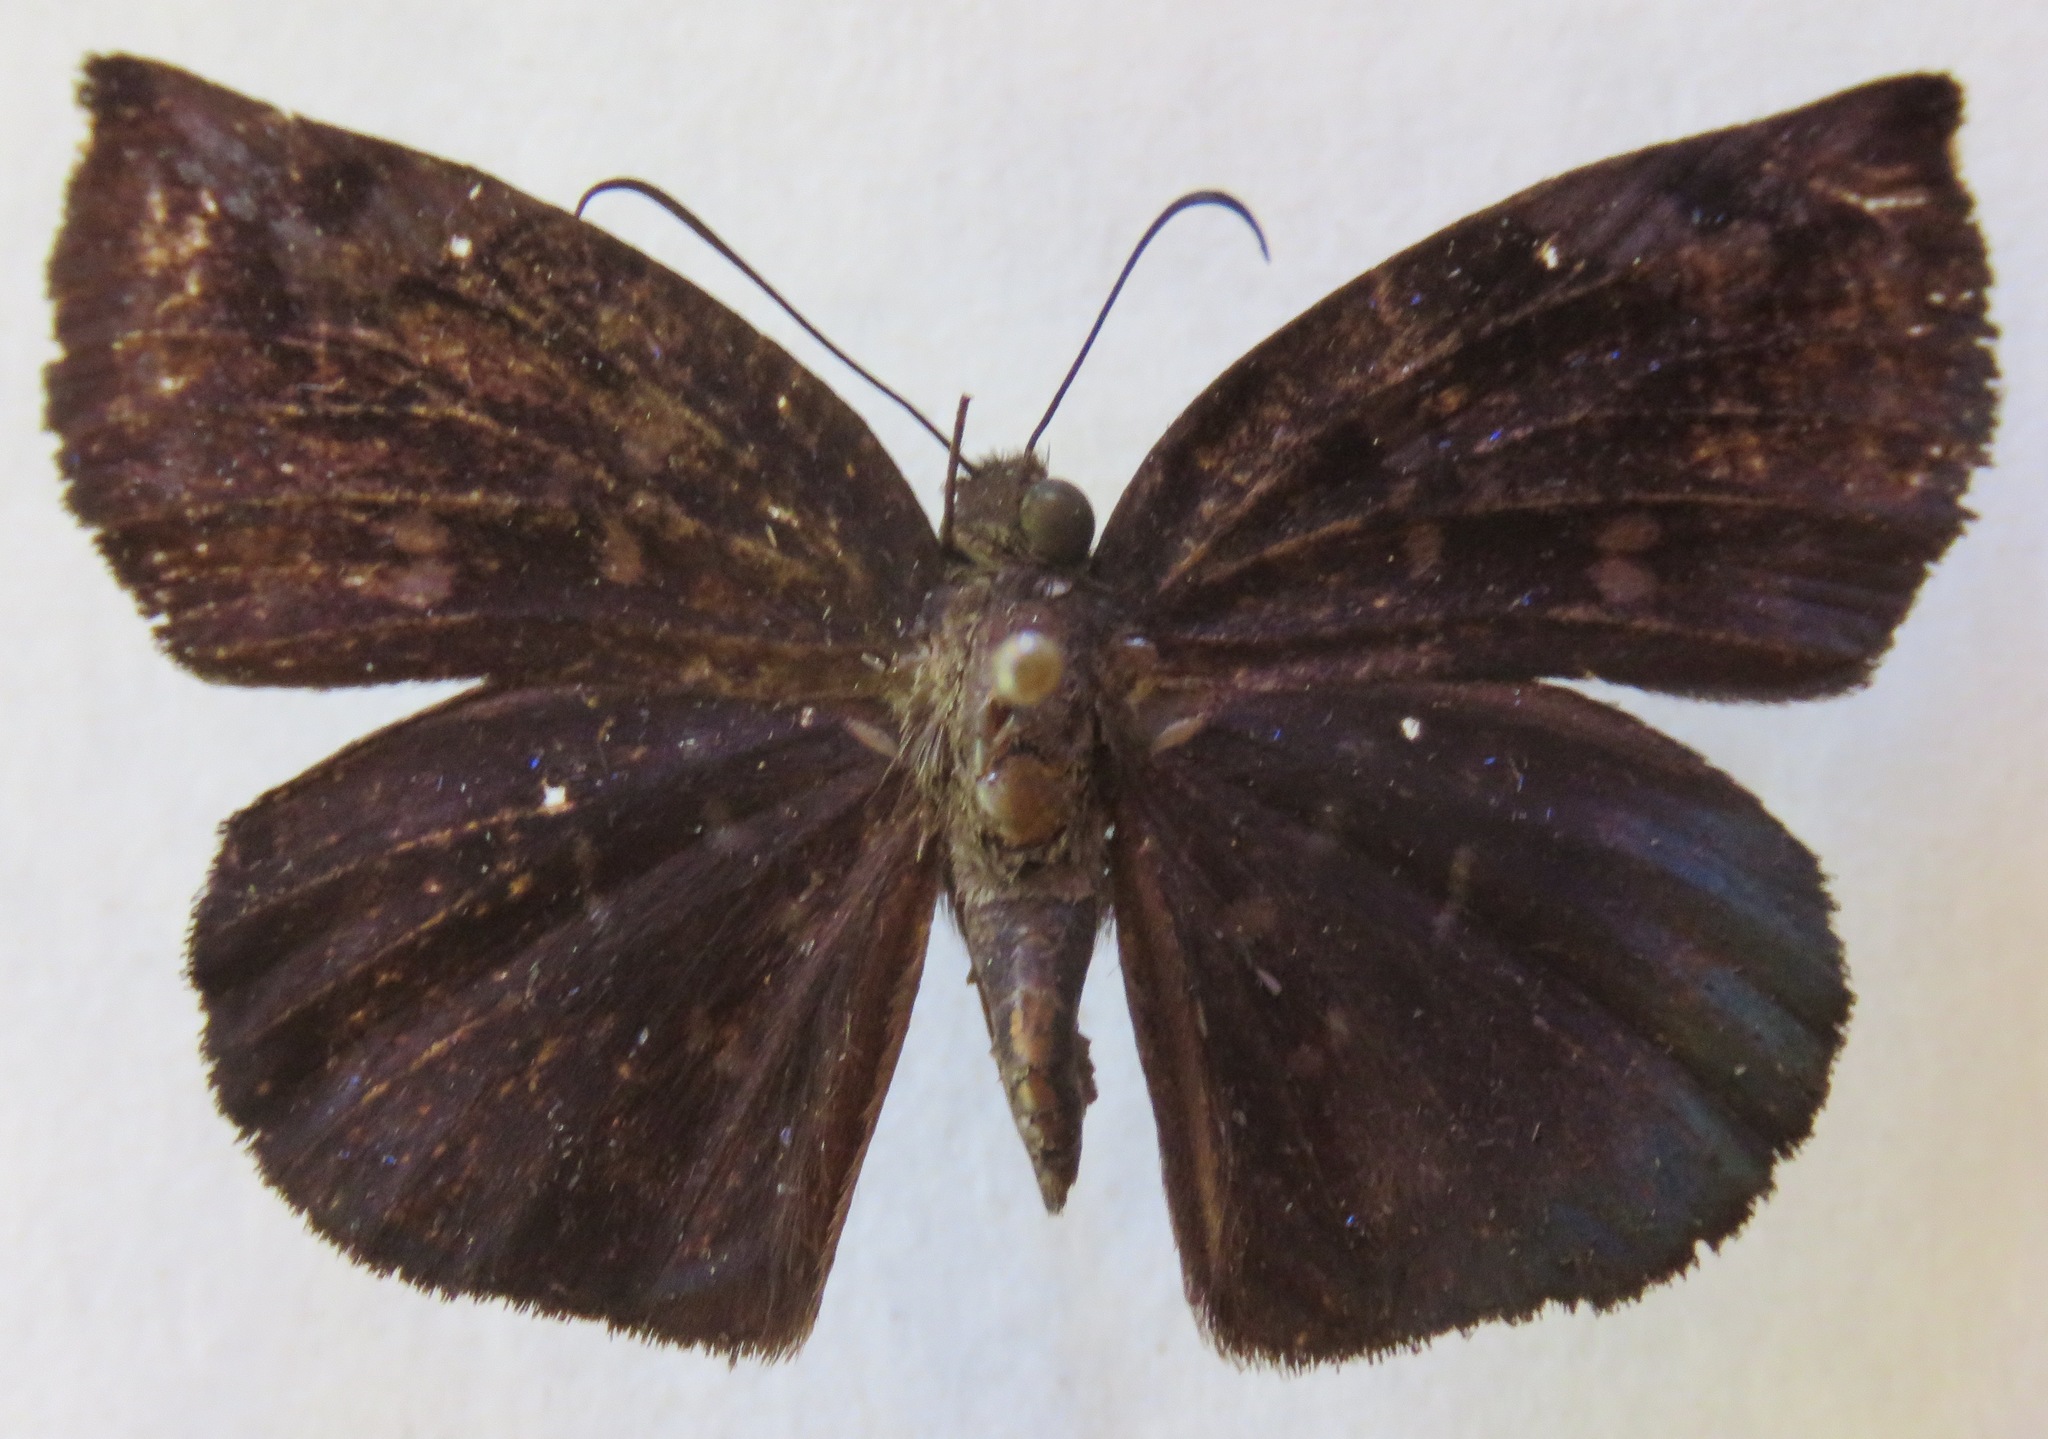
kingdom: Animalia
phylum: Arthropoda
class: Insecta
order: Lepidoptera
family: Hesperiidae
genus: Achlyodes
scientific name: Achlyodes thraso
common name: Sickle-winged skipper
